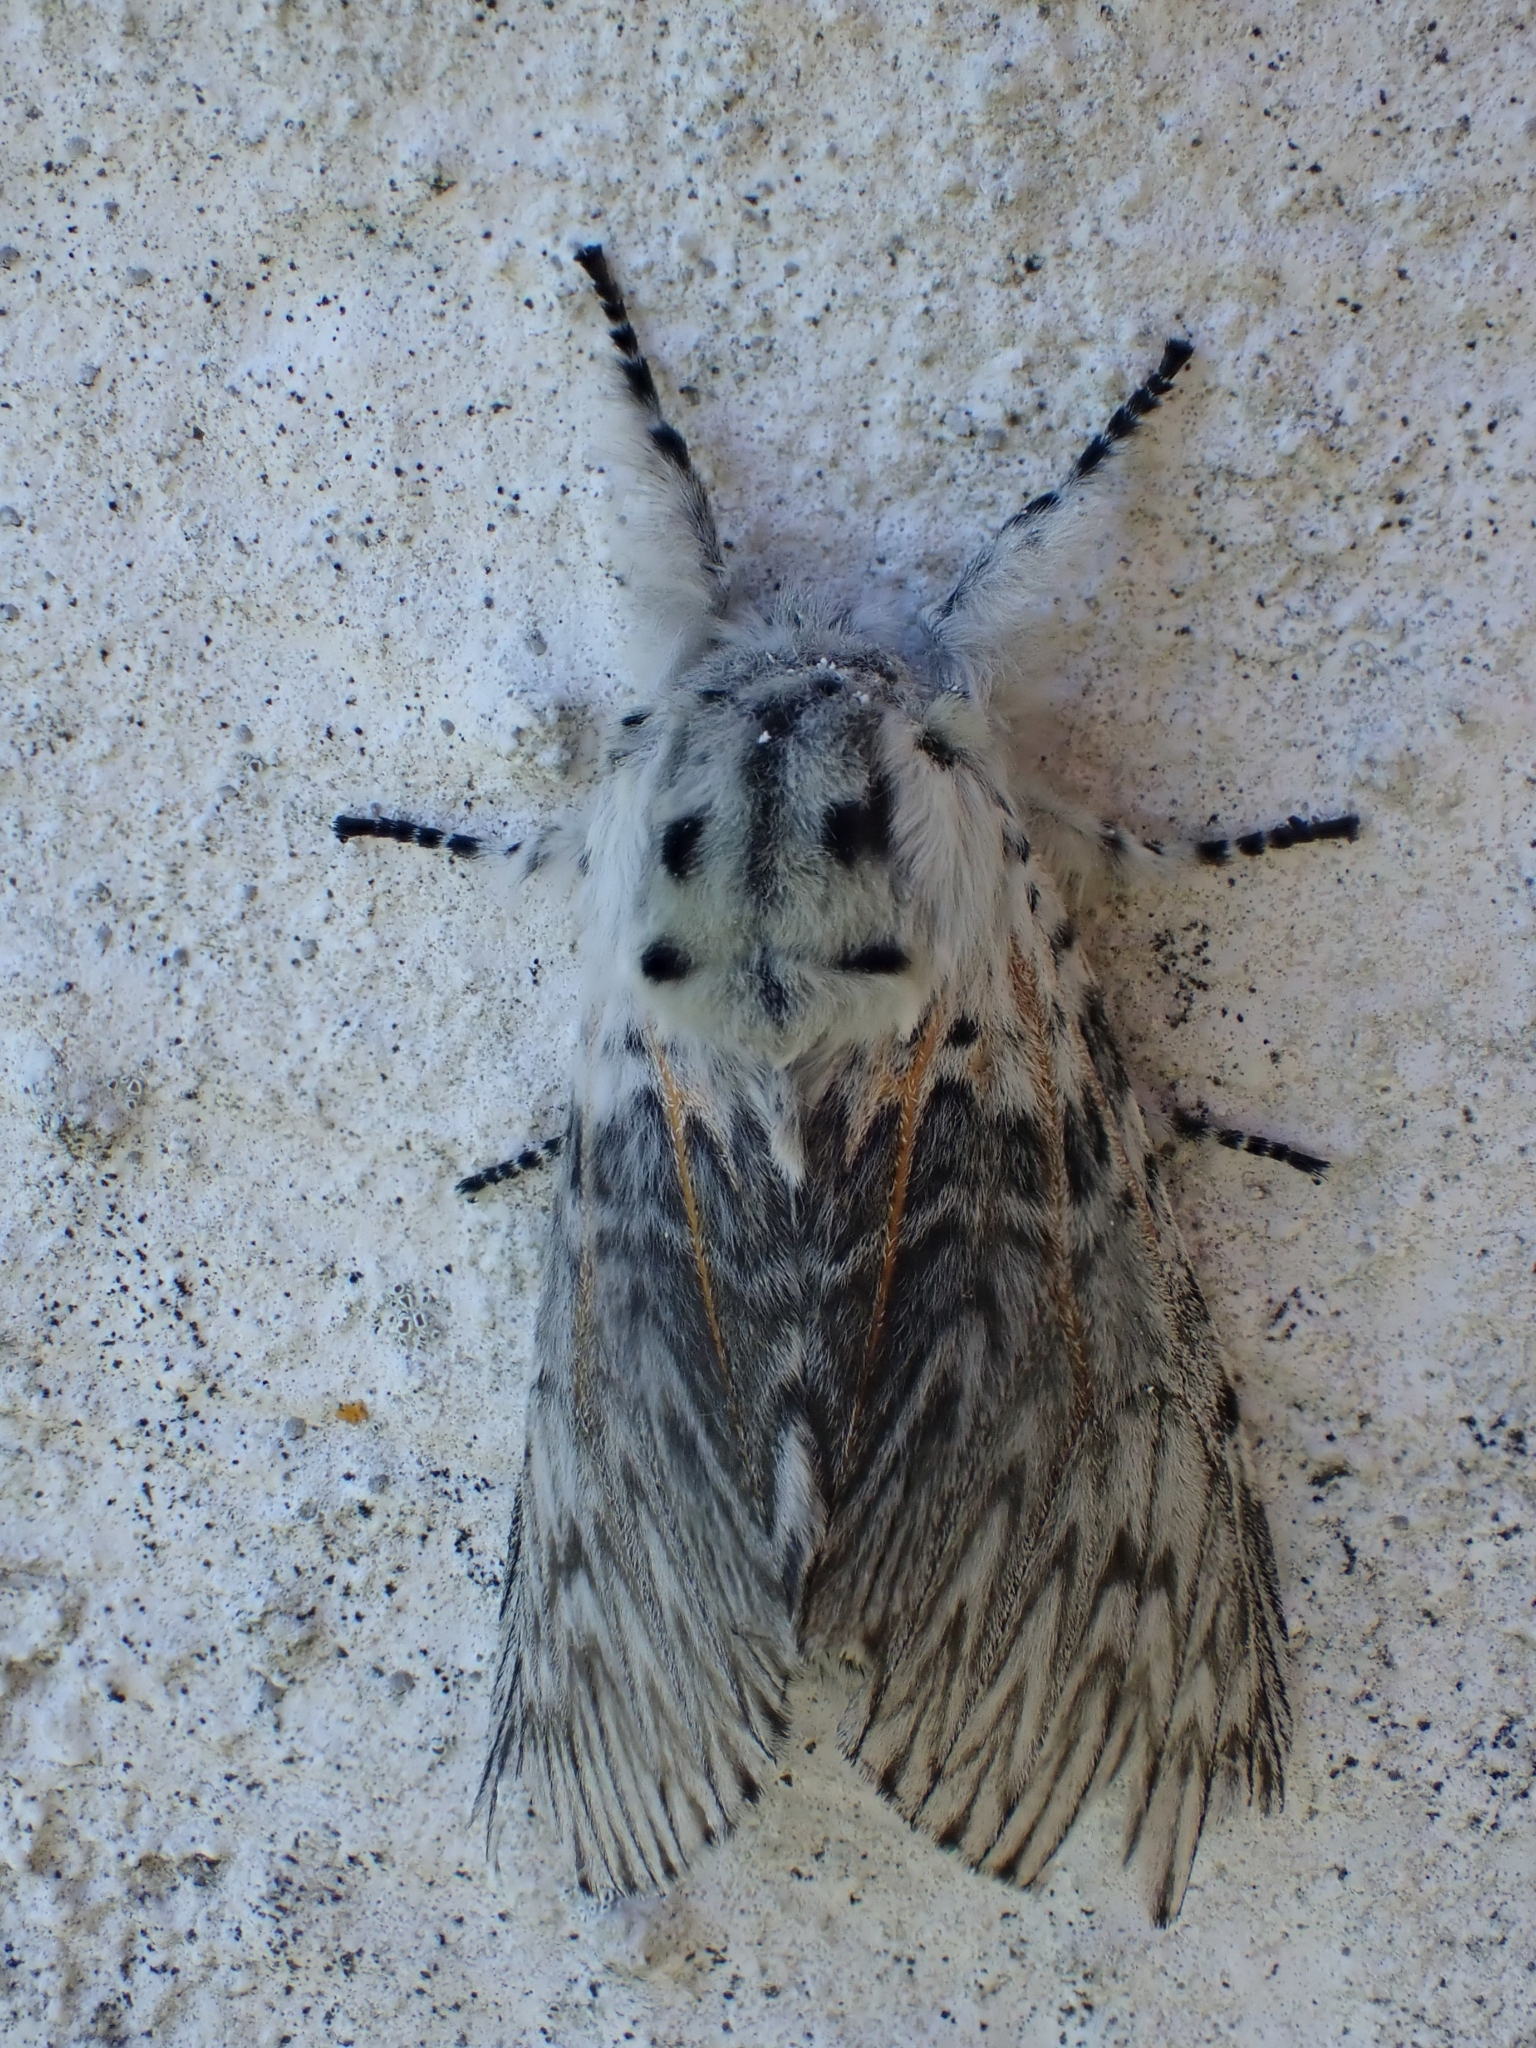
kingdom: Animalia
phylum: Arthropoda
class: Insecta
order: Lepidoptera
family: Notodontidae
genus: Cerura
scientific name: Cerura vinula
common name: Puss moth
